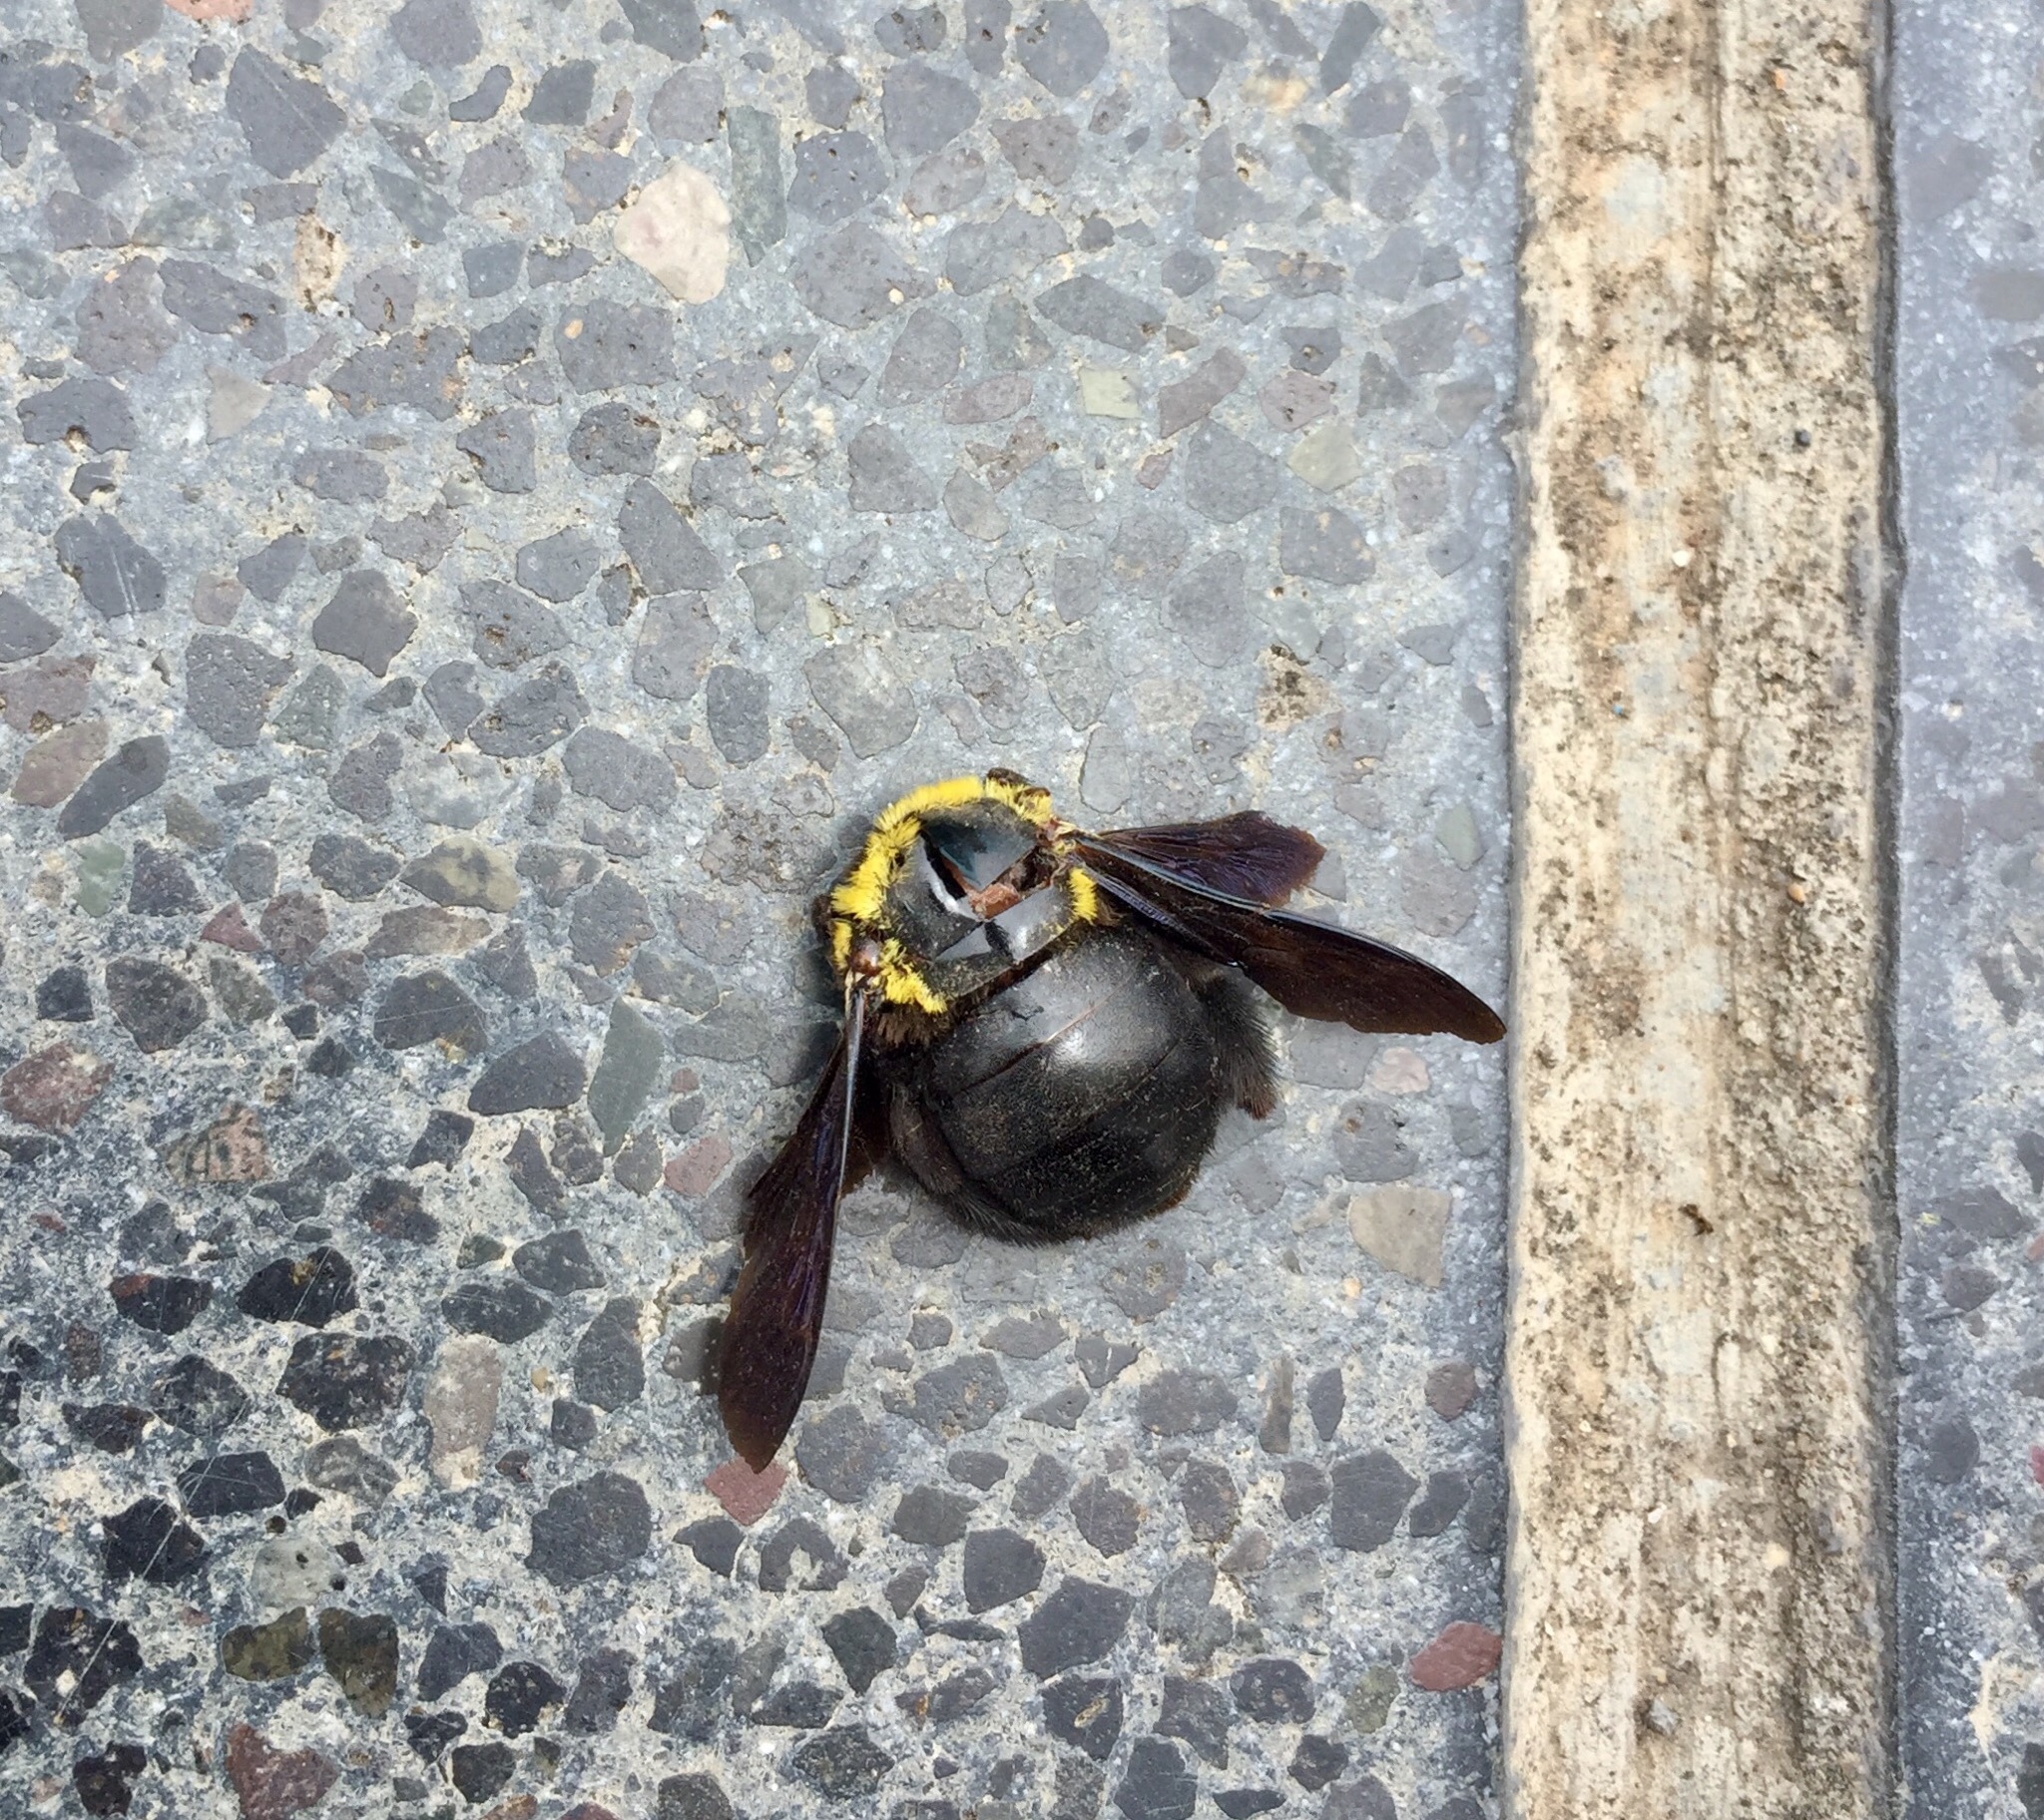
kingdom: Animalia
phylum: Arthropoda
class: Insecta
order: Hymenoptera
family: Apidae
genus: Xylocopa
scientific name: Xylocopa pubescens
